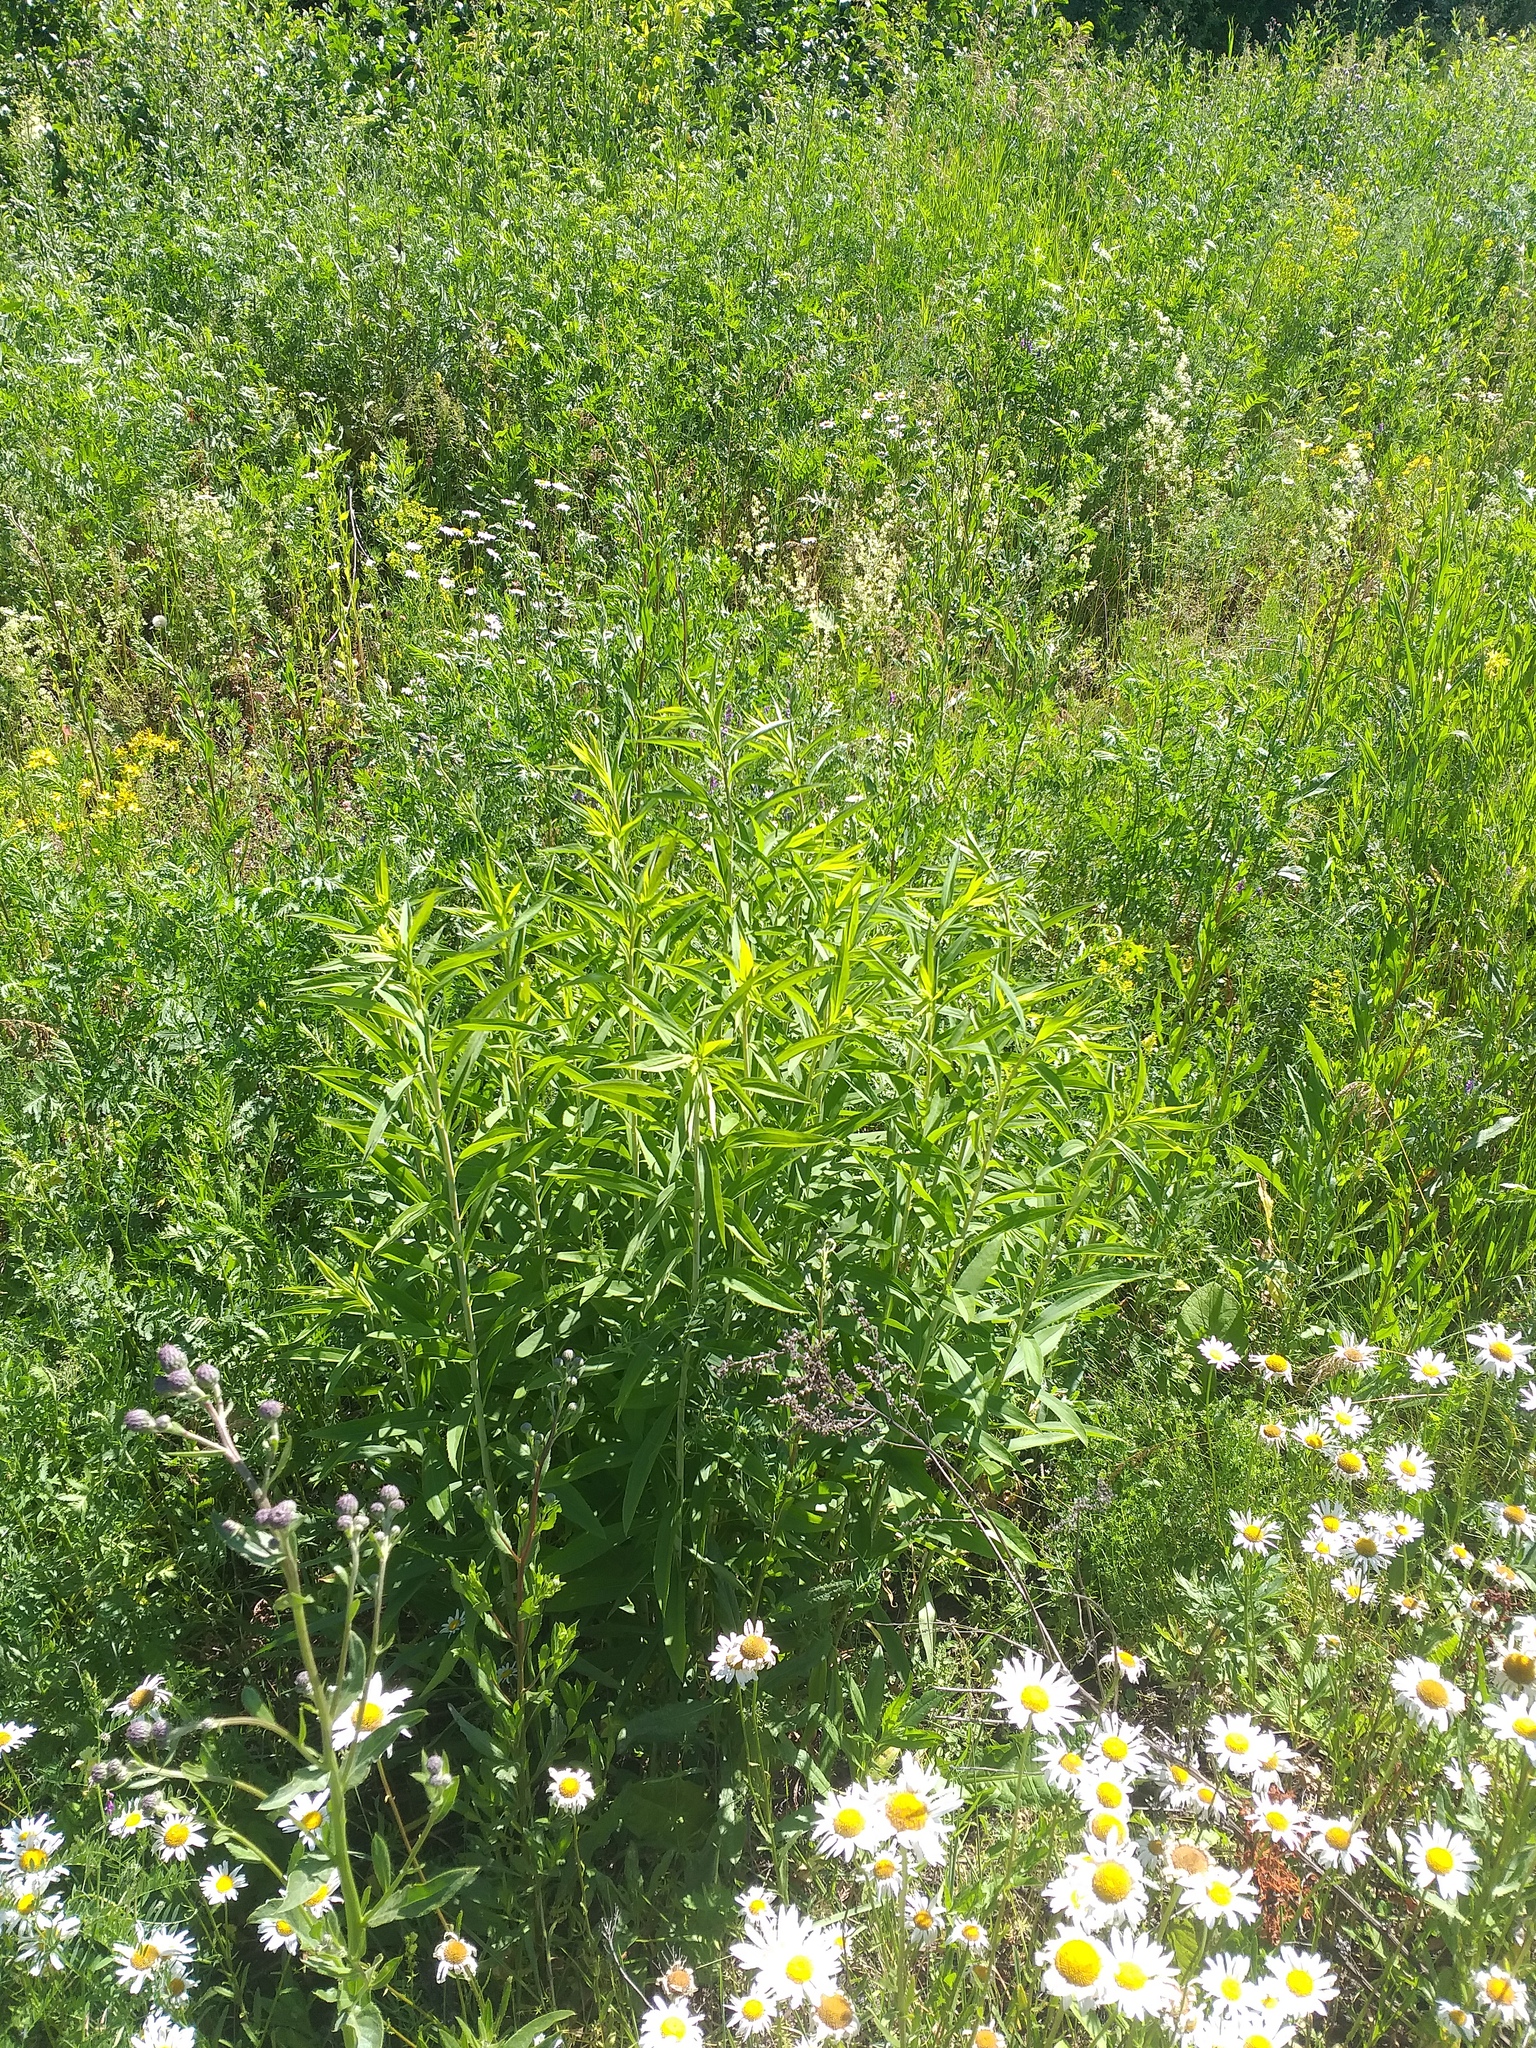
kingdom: Plantae
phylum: Tracheophyta
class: Magnoliopsida
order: Asterales
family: Asteraceae
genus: Solidago
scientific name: Solidago gigantea
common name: Giant goldenrod
